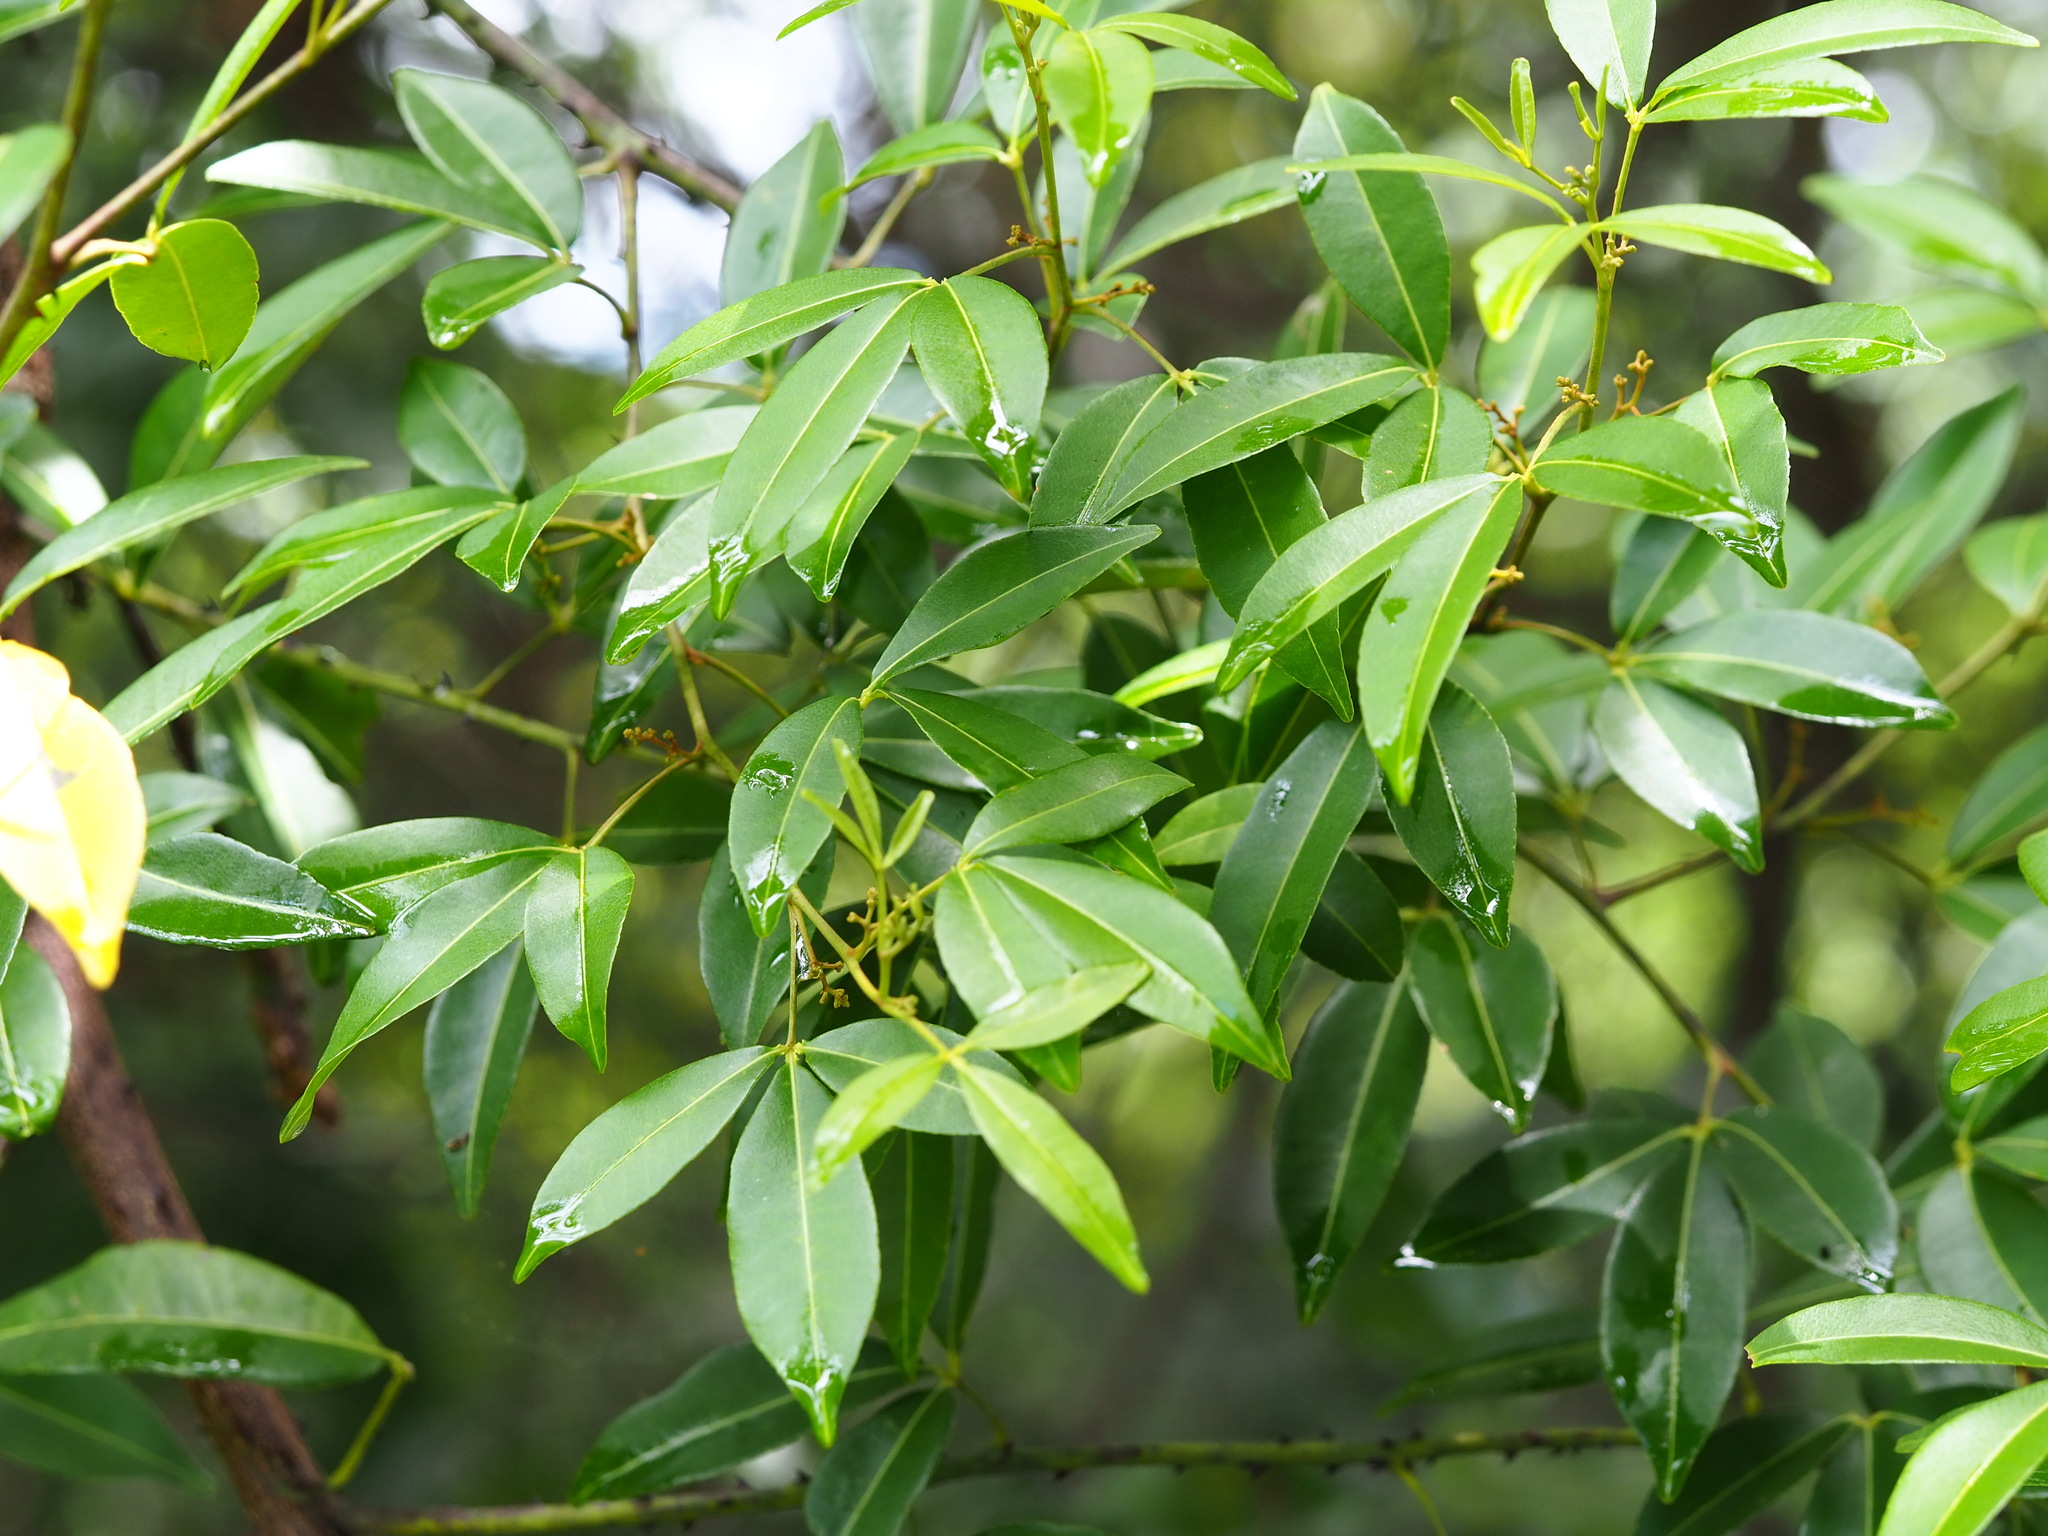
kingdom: Plantae
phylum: Tracheophyta
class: Magnoliopsida
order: Sapindales
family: Rutaceae
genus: Zanthoxylum
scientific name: Zanthoxylum asiaticum
